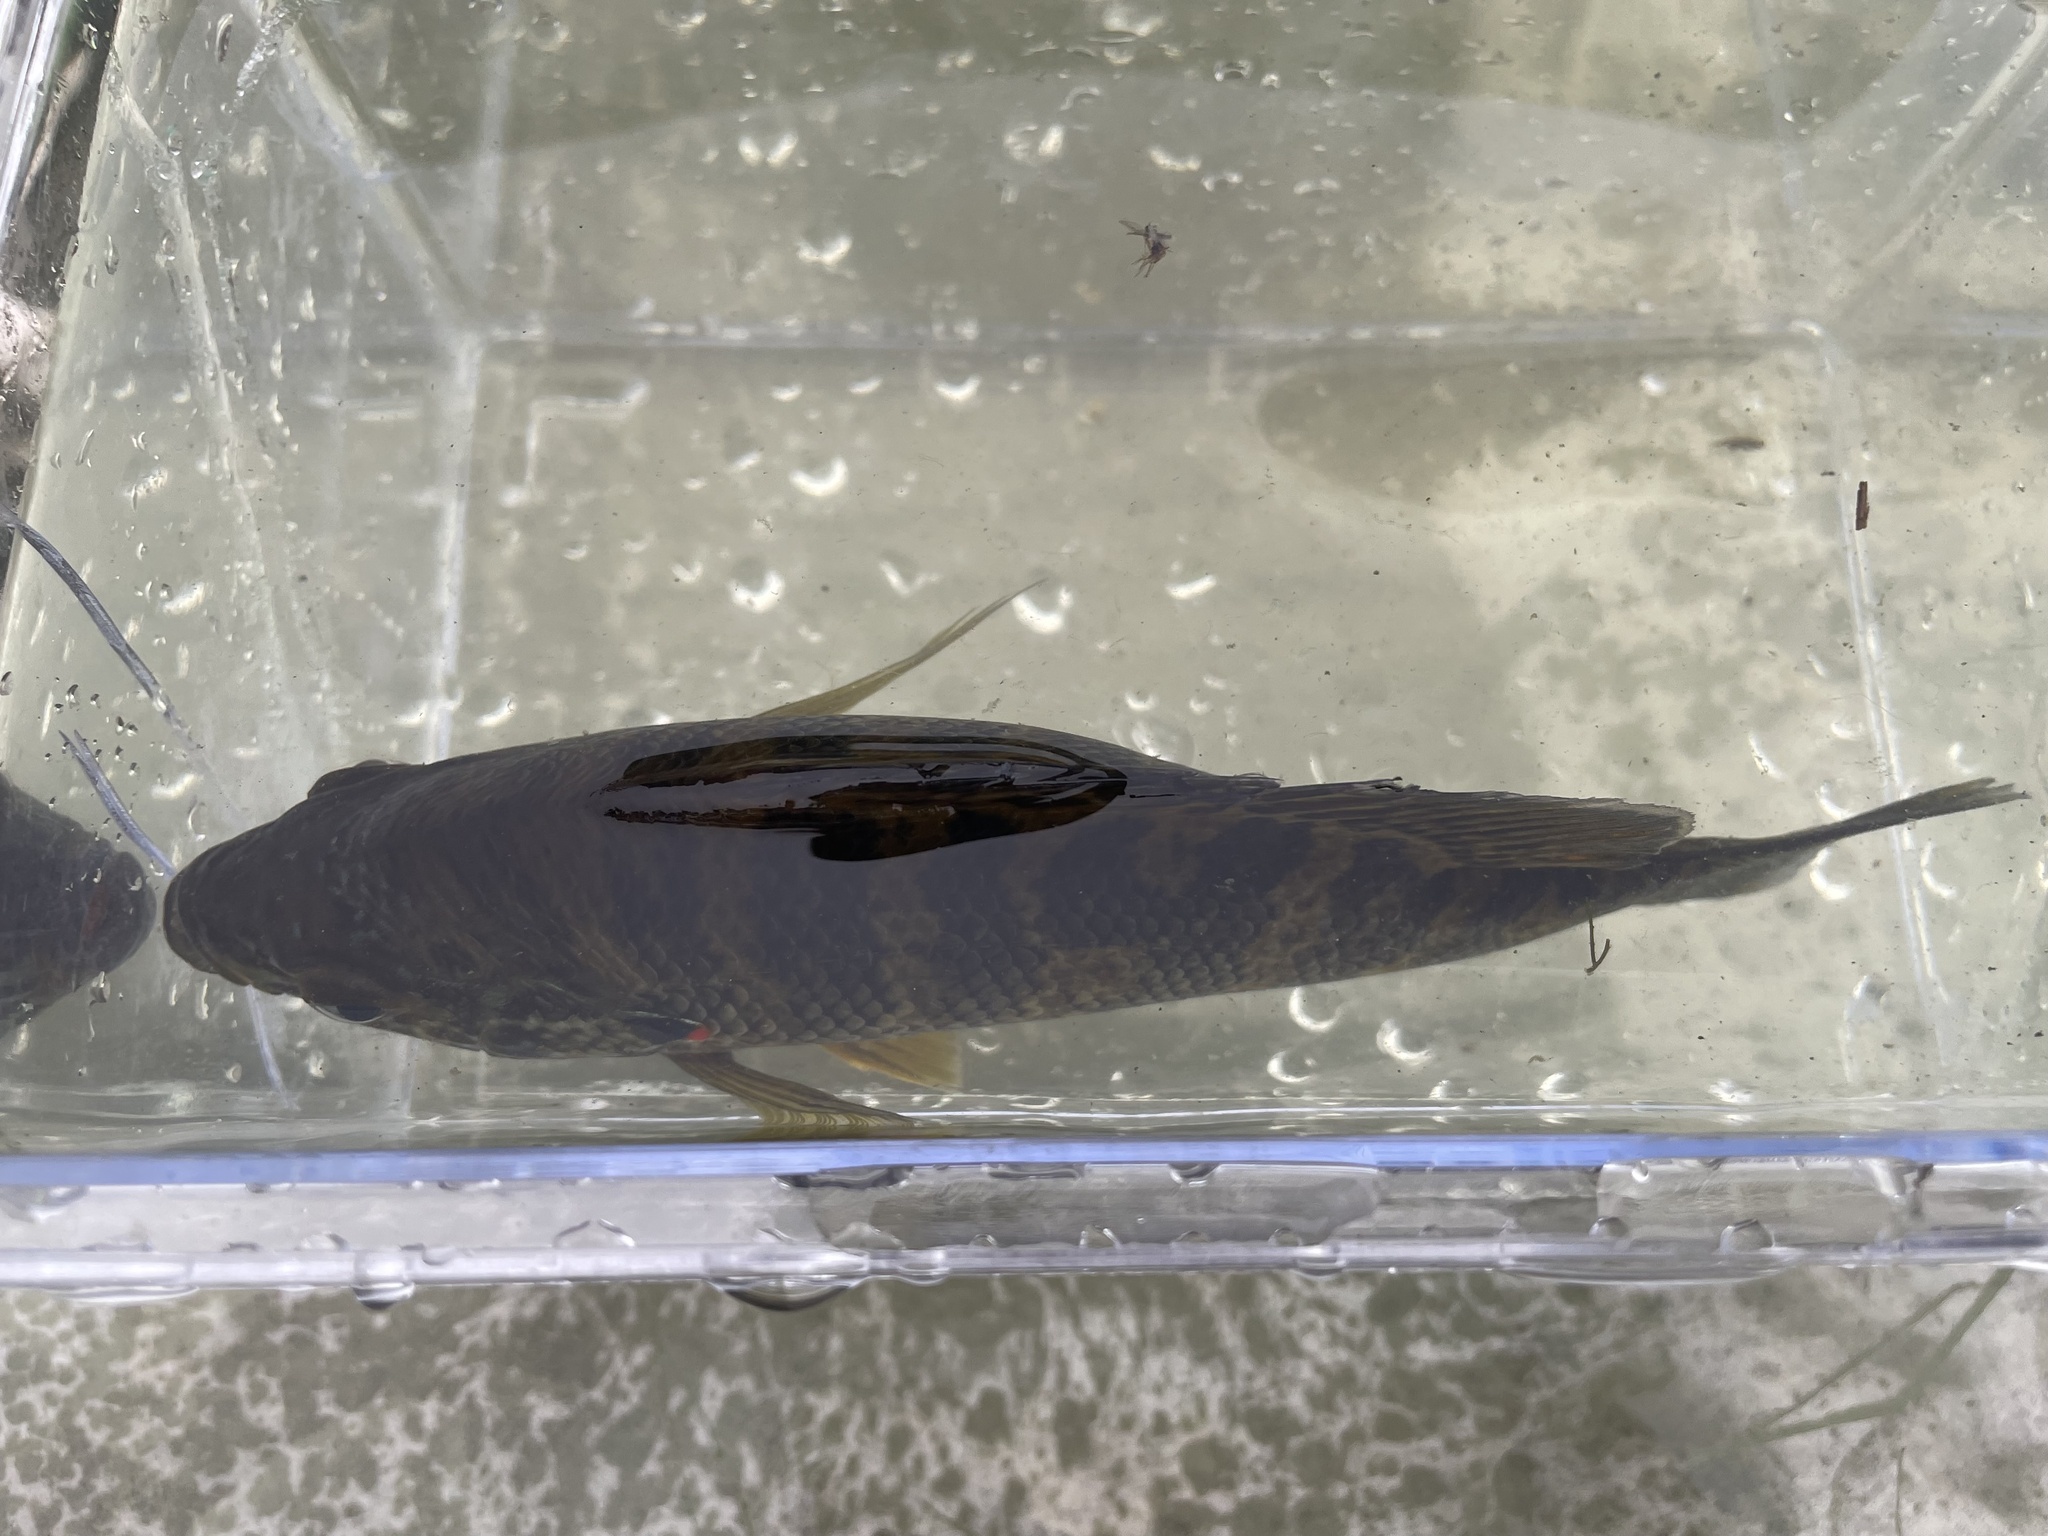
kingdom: Animalia
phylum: Chordata
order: Perciformes
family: Centrarchidae
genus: Lepomis
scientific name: Lepomis gibbosus
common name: Pumpkinseed
